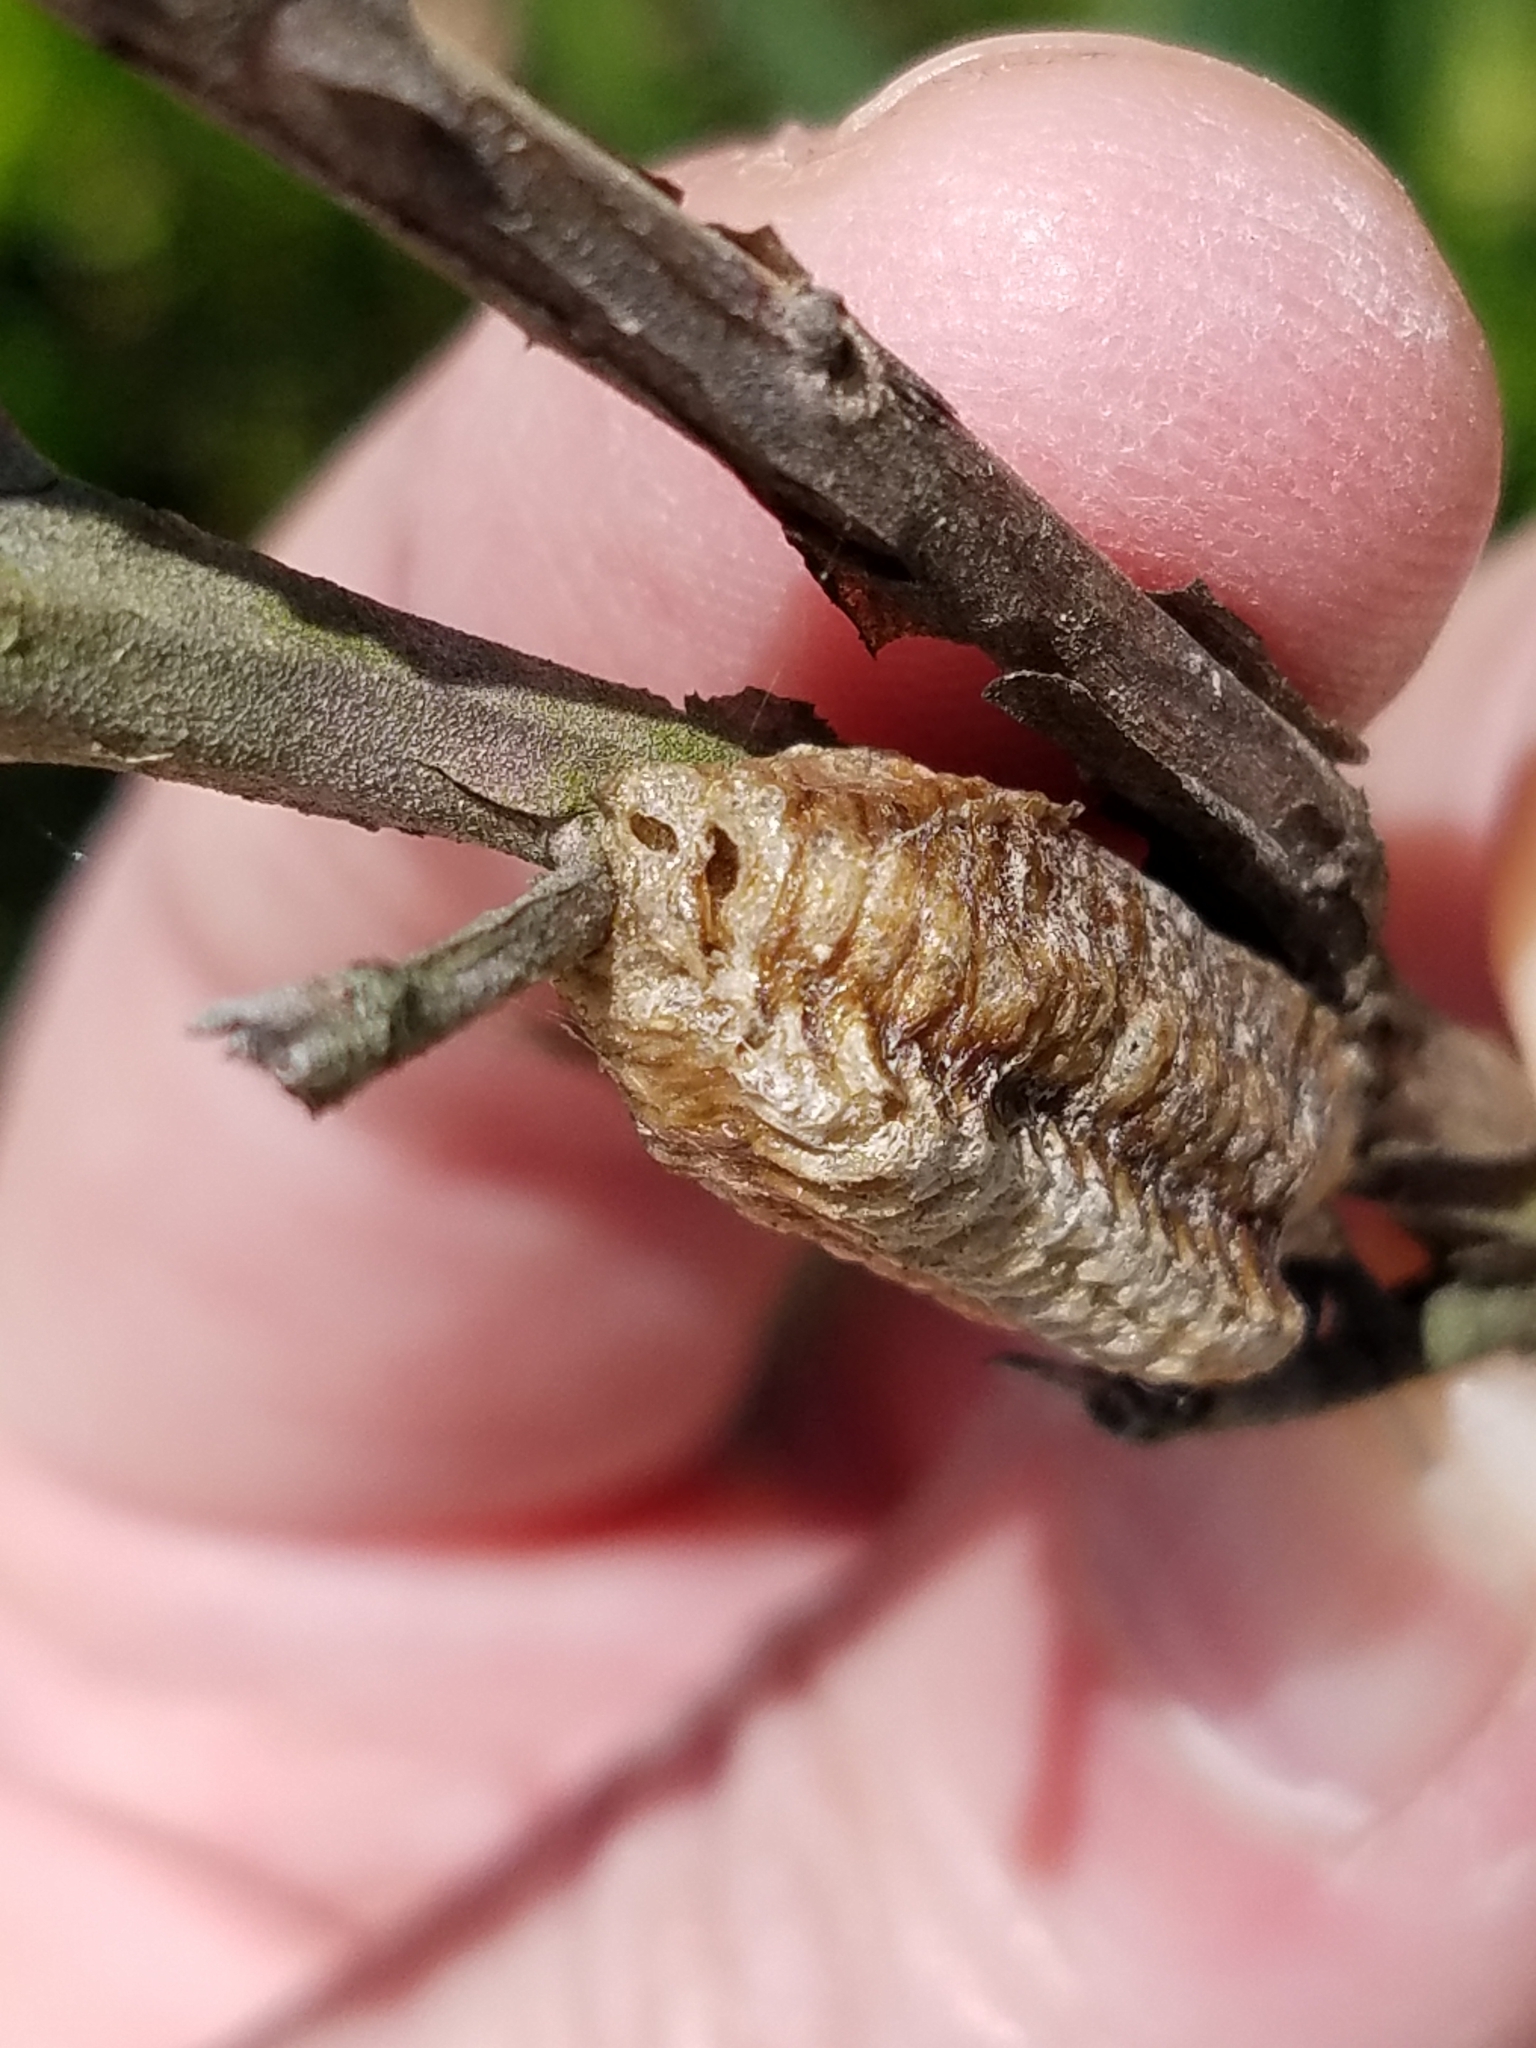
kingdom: Animalia
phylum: Arthropoda
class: Insecta
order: Mantodea
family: Mantidae
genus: Stagmomantis
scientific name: Stagmomantis carolina
